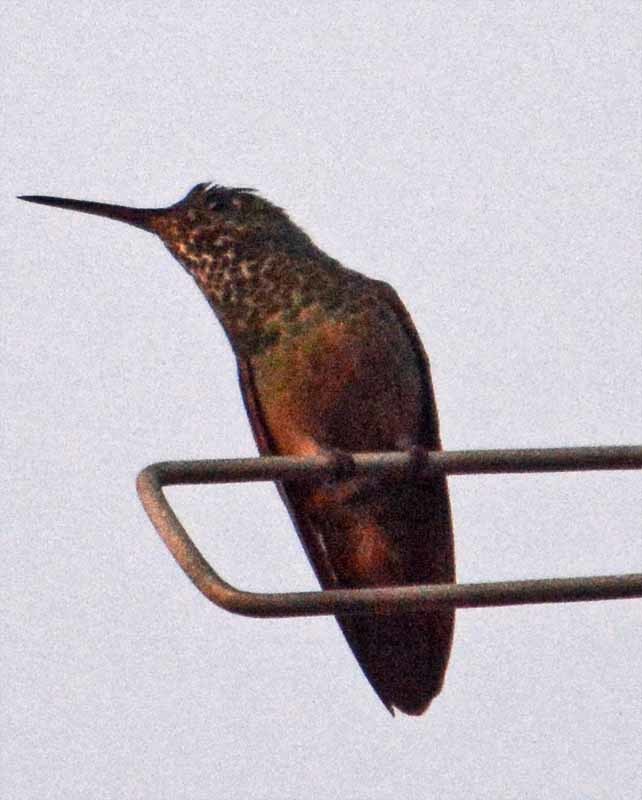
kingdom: Animalia
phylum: Chordata
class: Aves
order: Apodiformes
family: Trochilidae
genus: Saucerottia
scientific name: Saucerottia beryllina
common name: Berylline hummingbird
